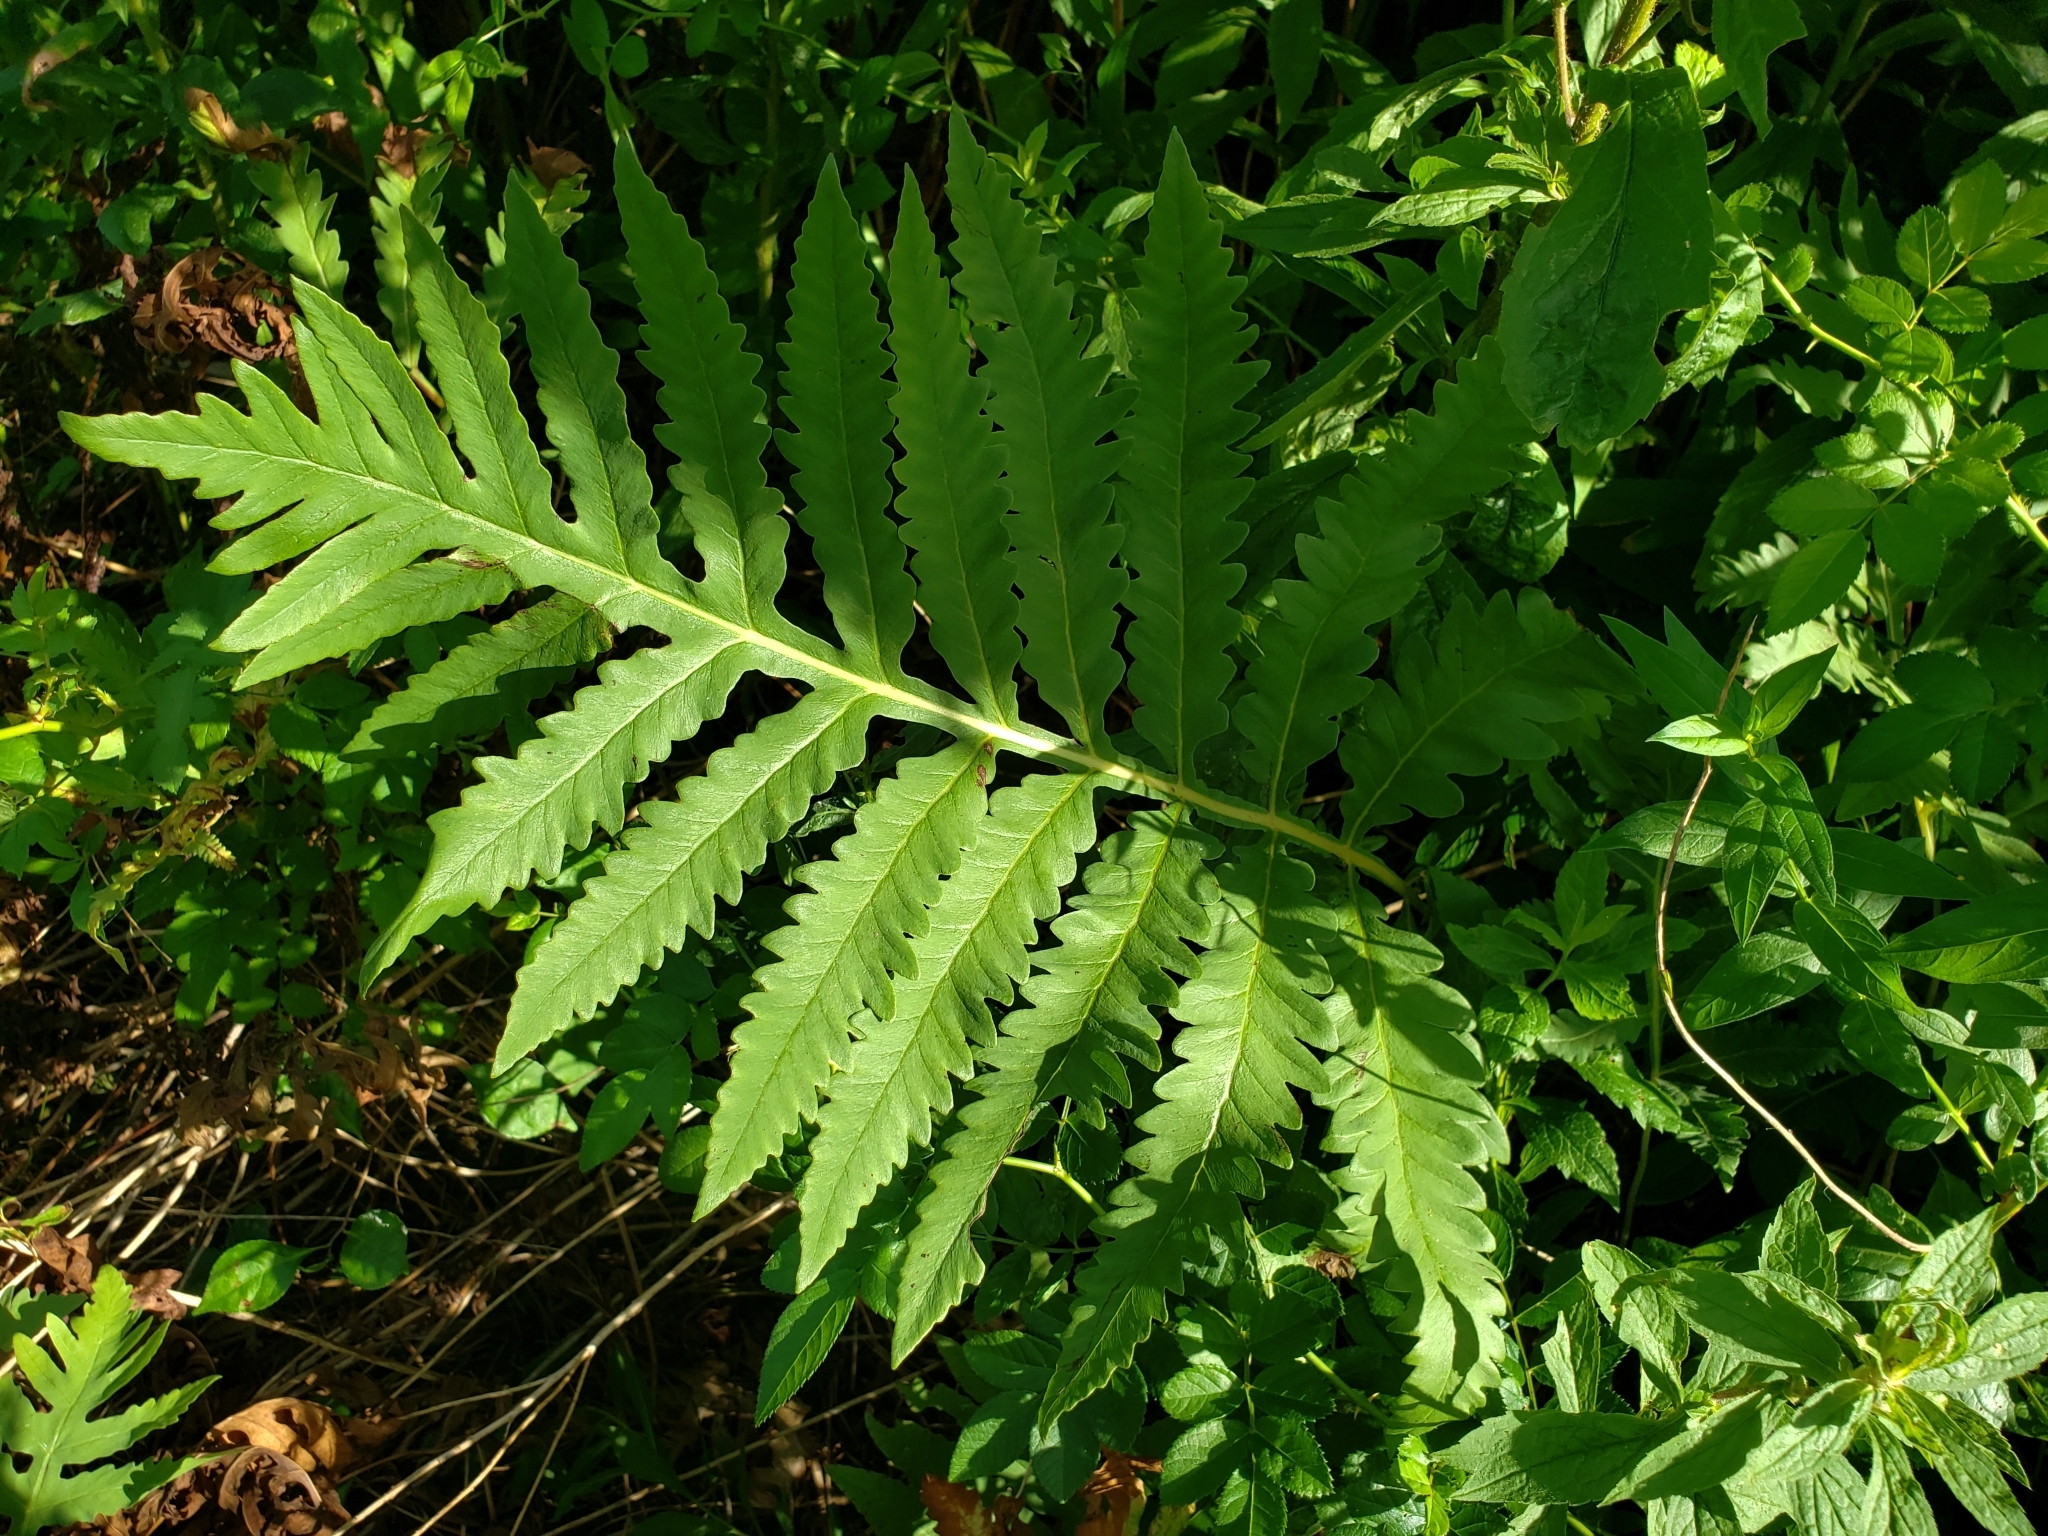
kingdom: Plantae
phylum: Tracheophyta
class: Polypodiopsida
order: Polypodiales
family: Onocleaceae
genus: Onoclea
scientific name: Onoclea sensibilis
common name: Sensitive fern
